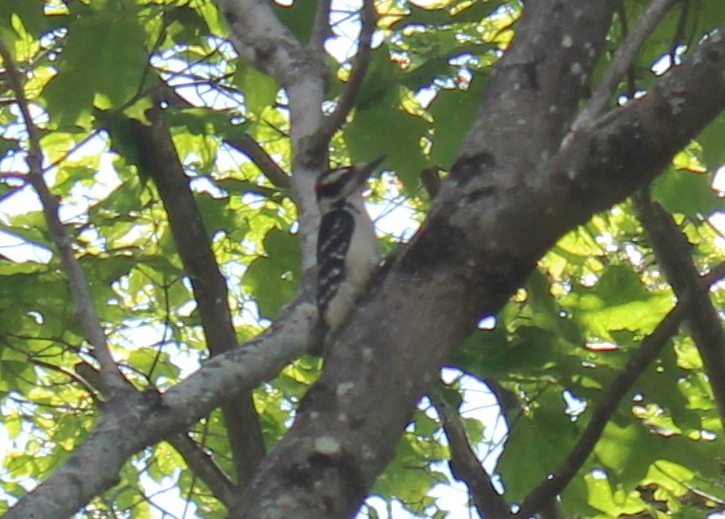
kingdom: Animalia
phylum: Chordata
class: Aves
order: Piciformes
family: Picidae
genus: Leuconotopicus
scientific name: Leuconotopicus villosus
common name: Hairy woodpecker
